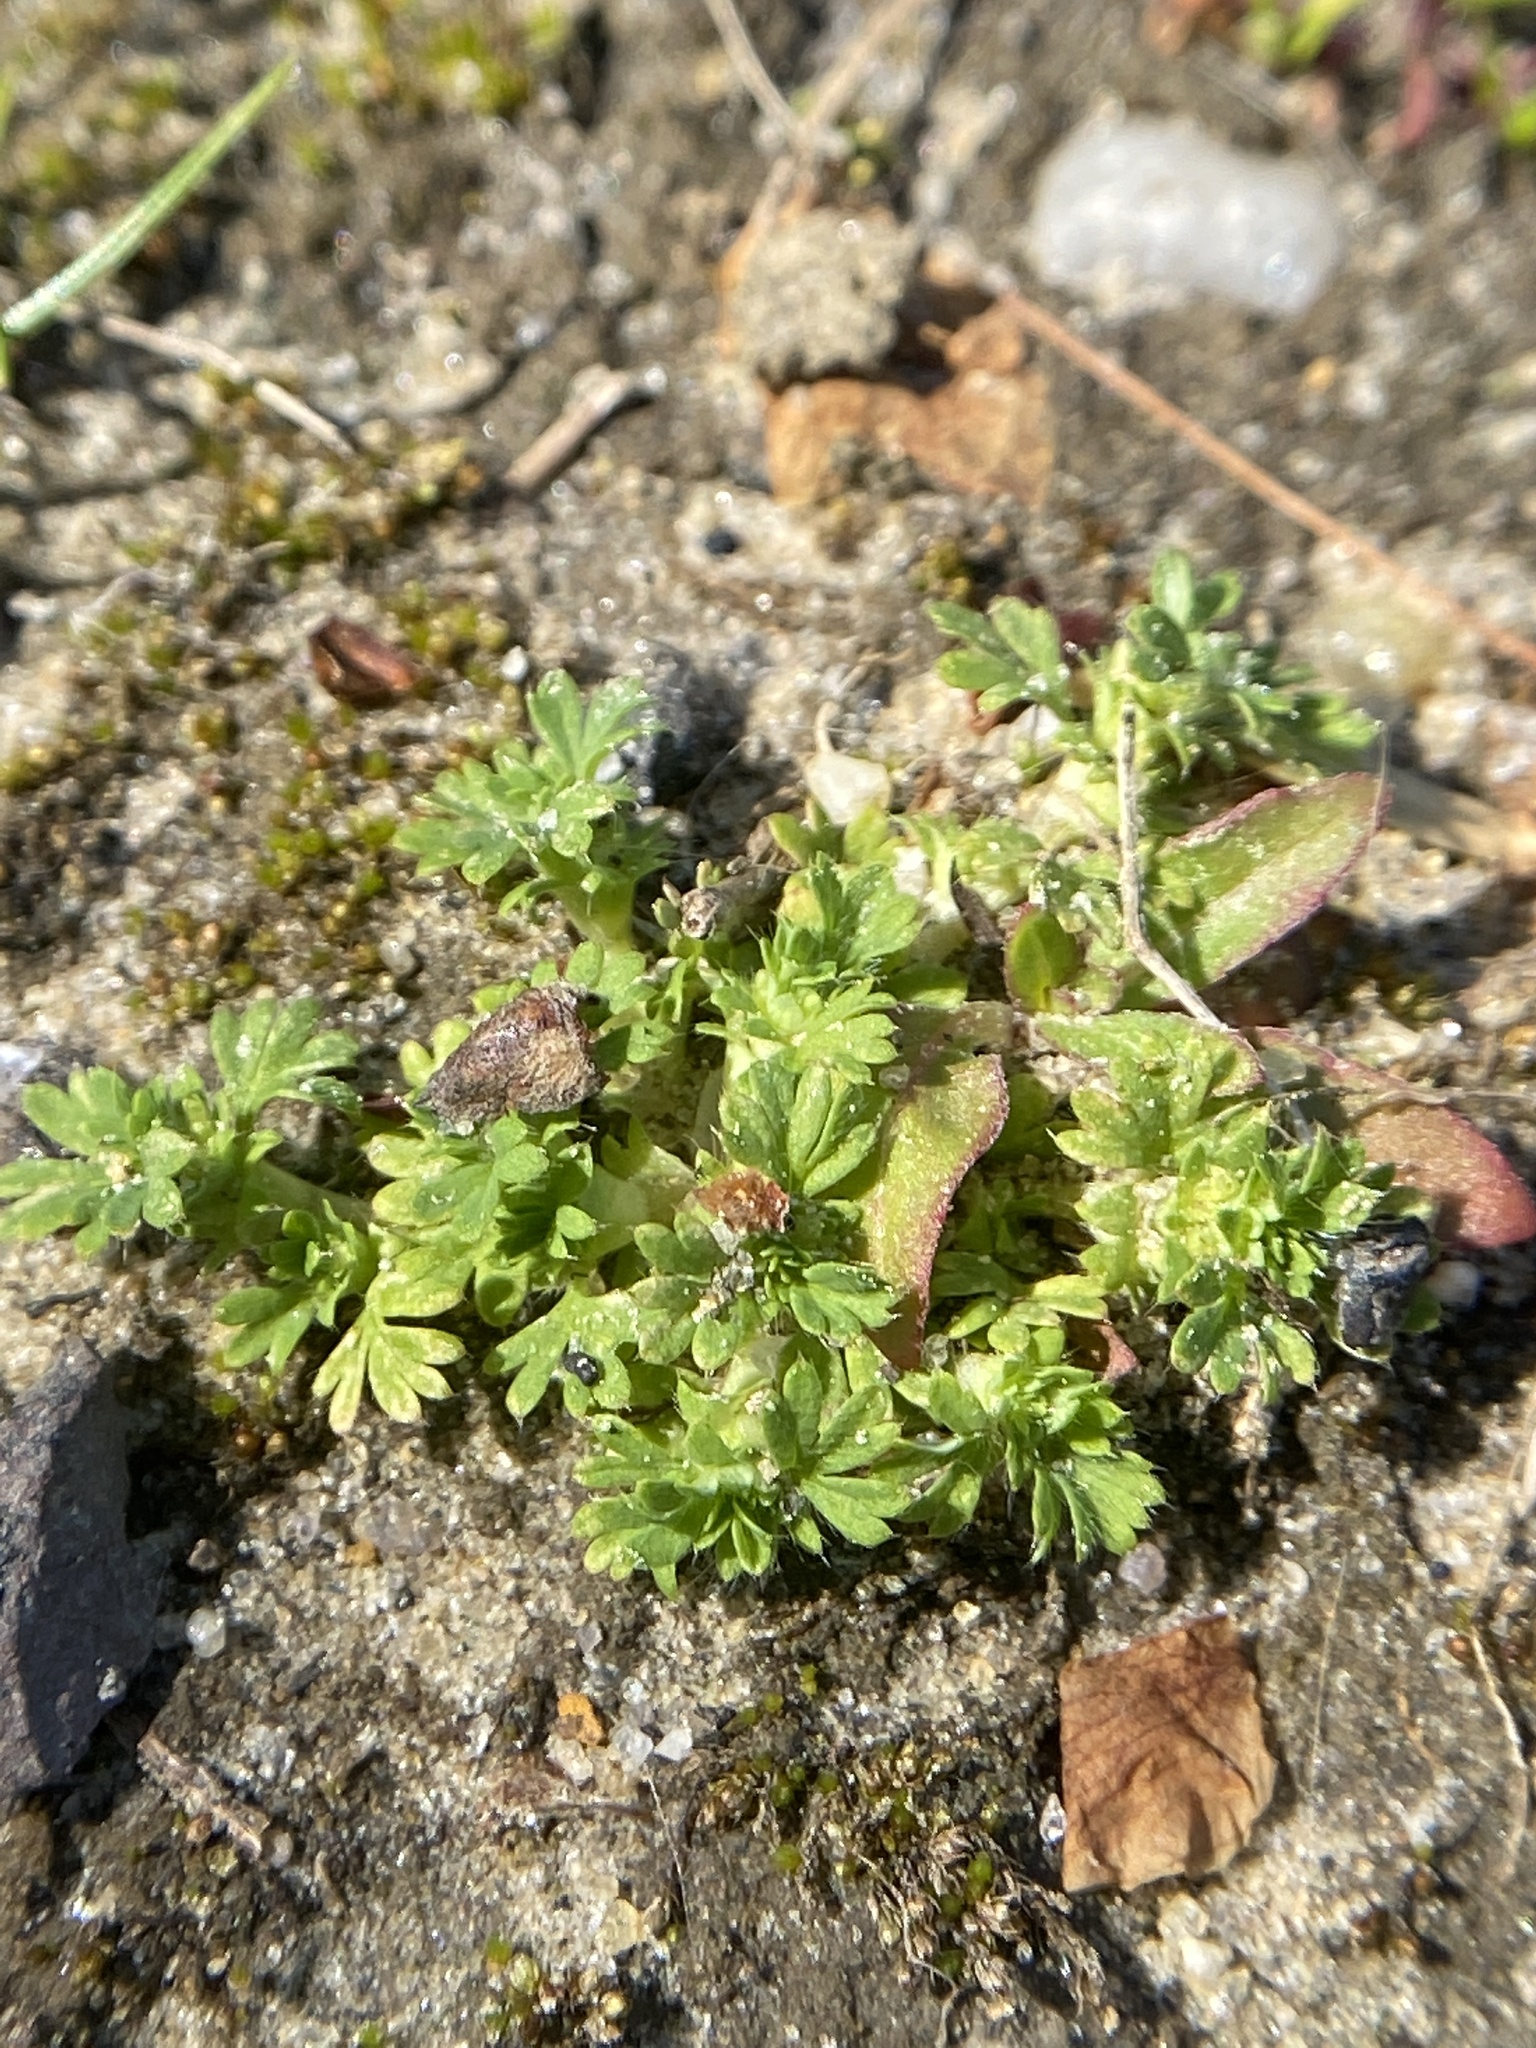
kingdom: Plantae
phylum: Tracheophyta
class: Magnoliopsida
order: Rosales
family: Rosaceae
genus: Aphanes
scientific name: Aphanes australis
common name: Slender parsley-piert
